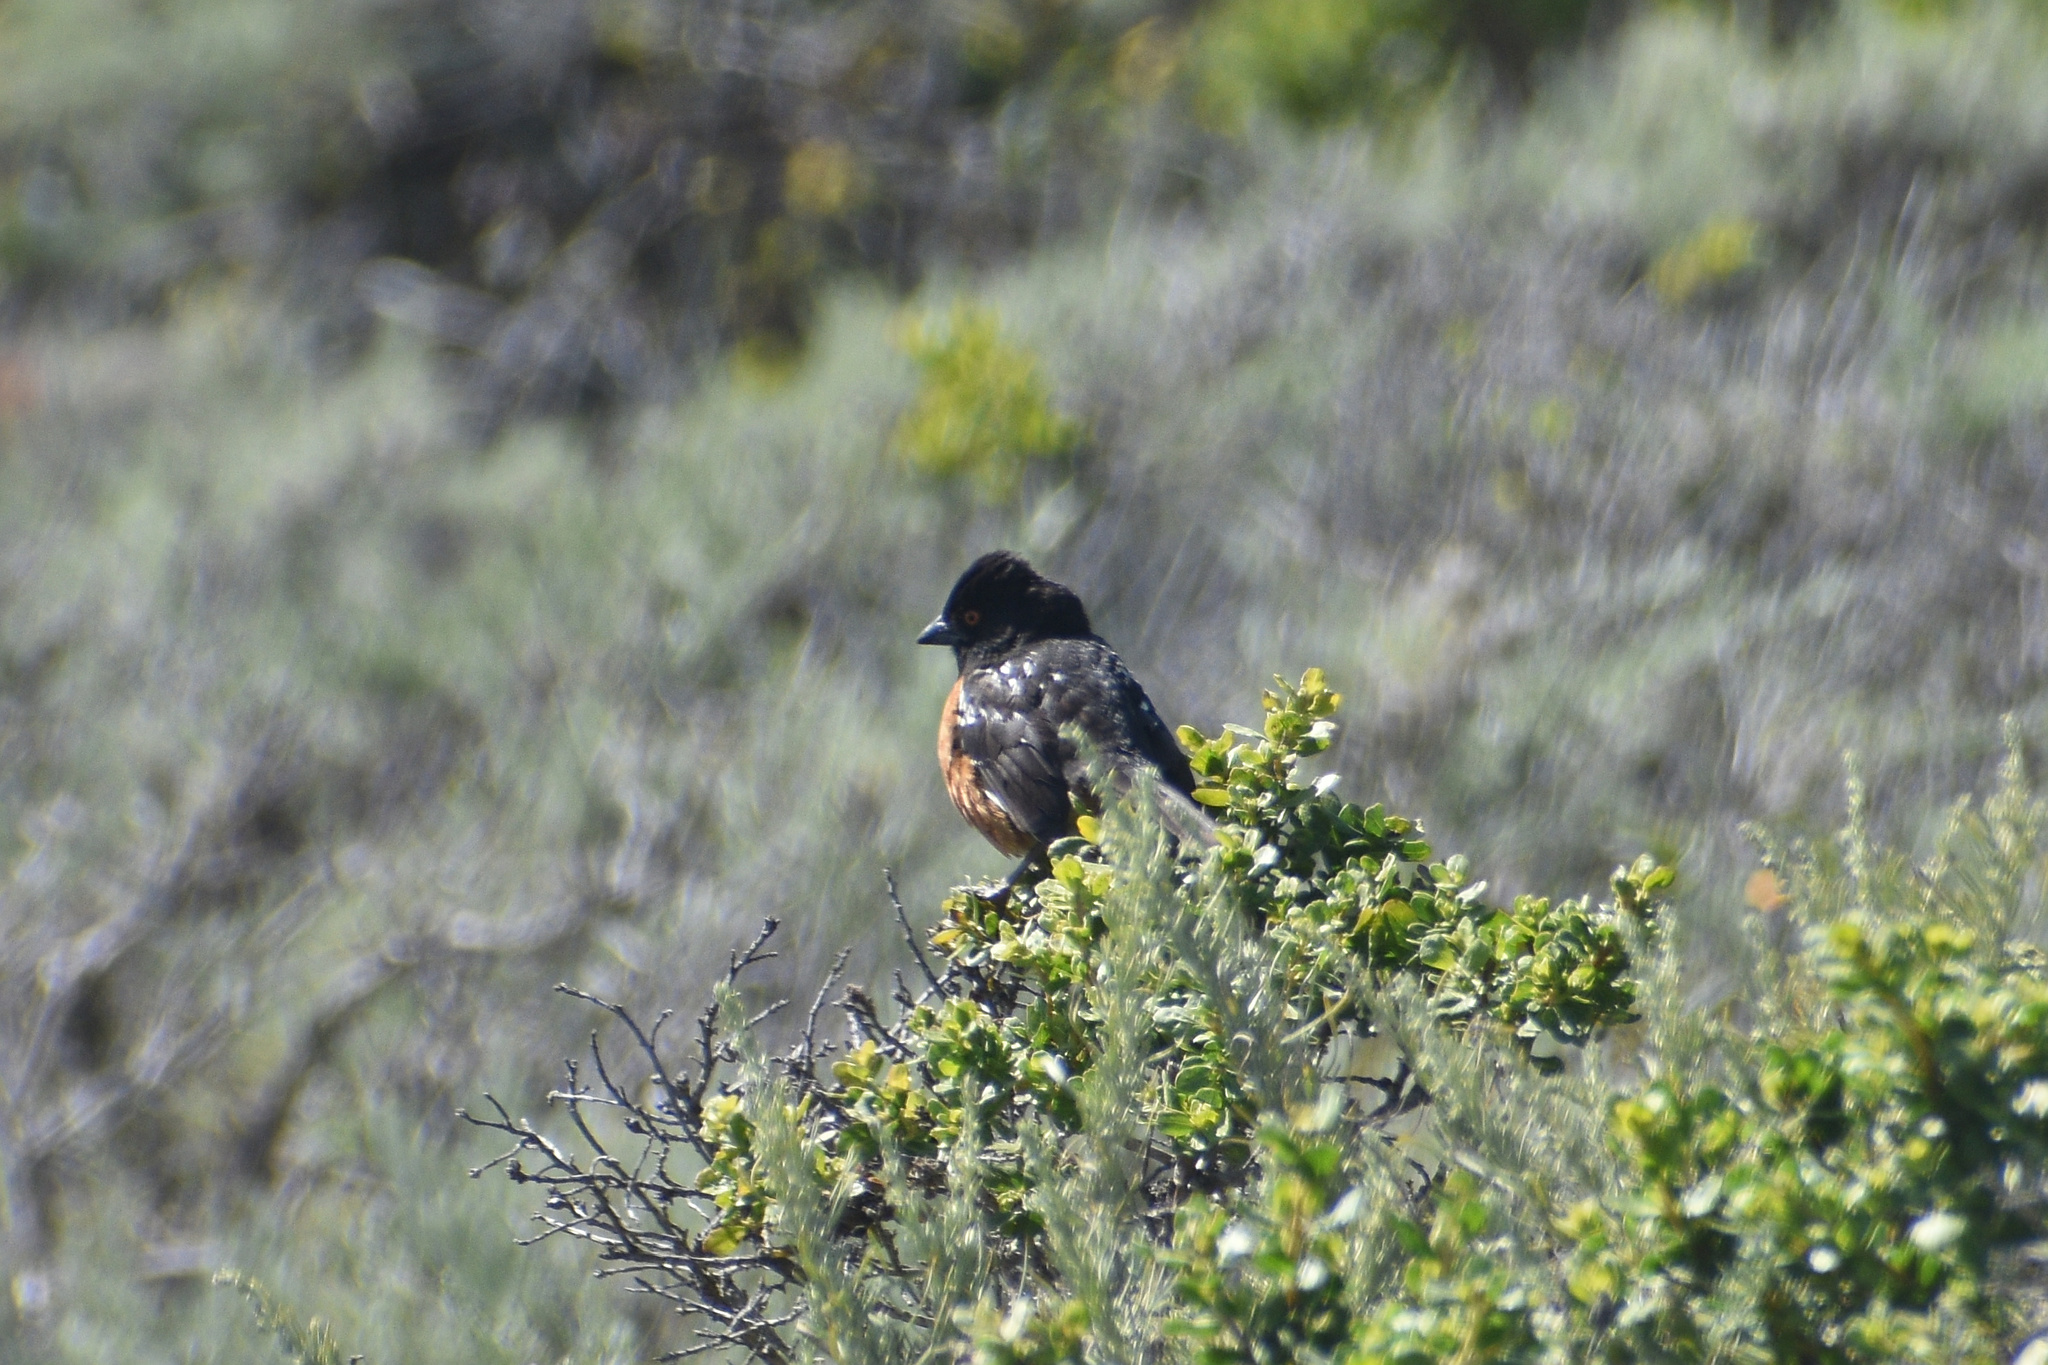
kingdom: Animalia
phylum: Chordata
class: Aves
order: Passeriformes
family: Passerellidae
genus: Pipilo
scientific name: Pipilo maculatus
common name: Spotted towhee
